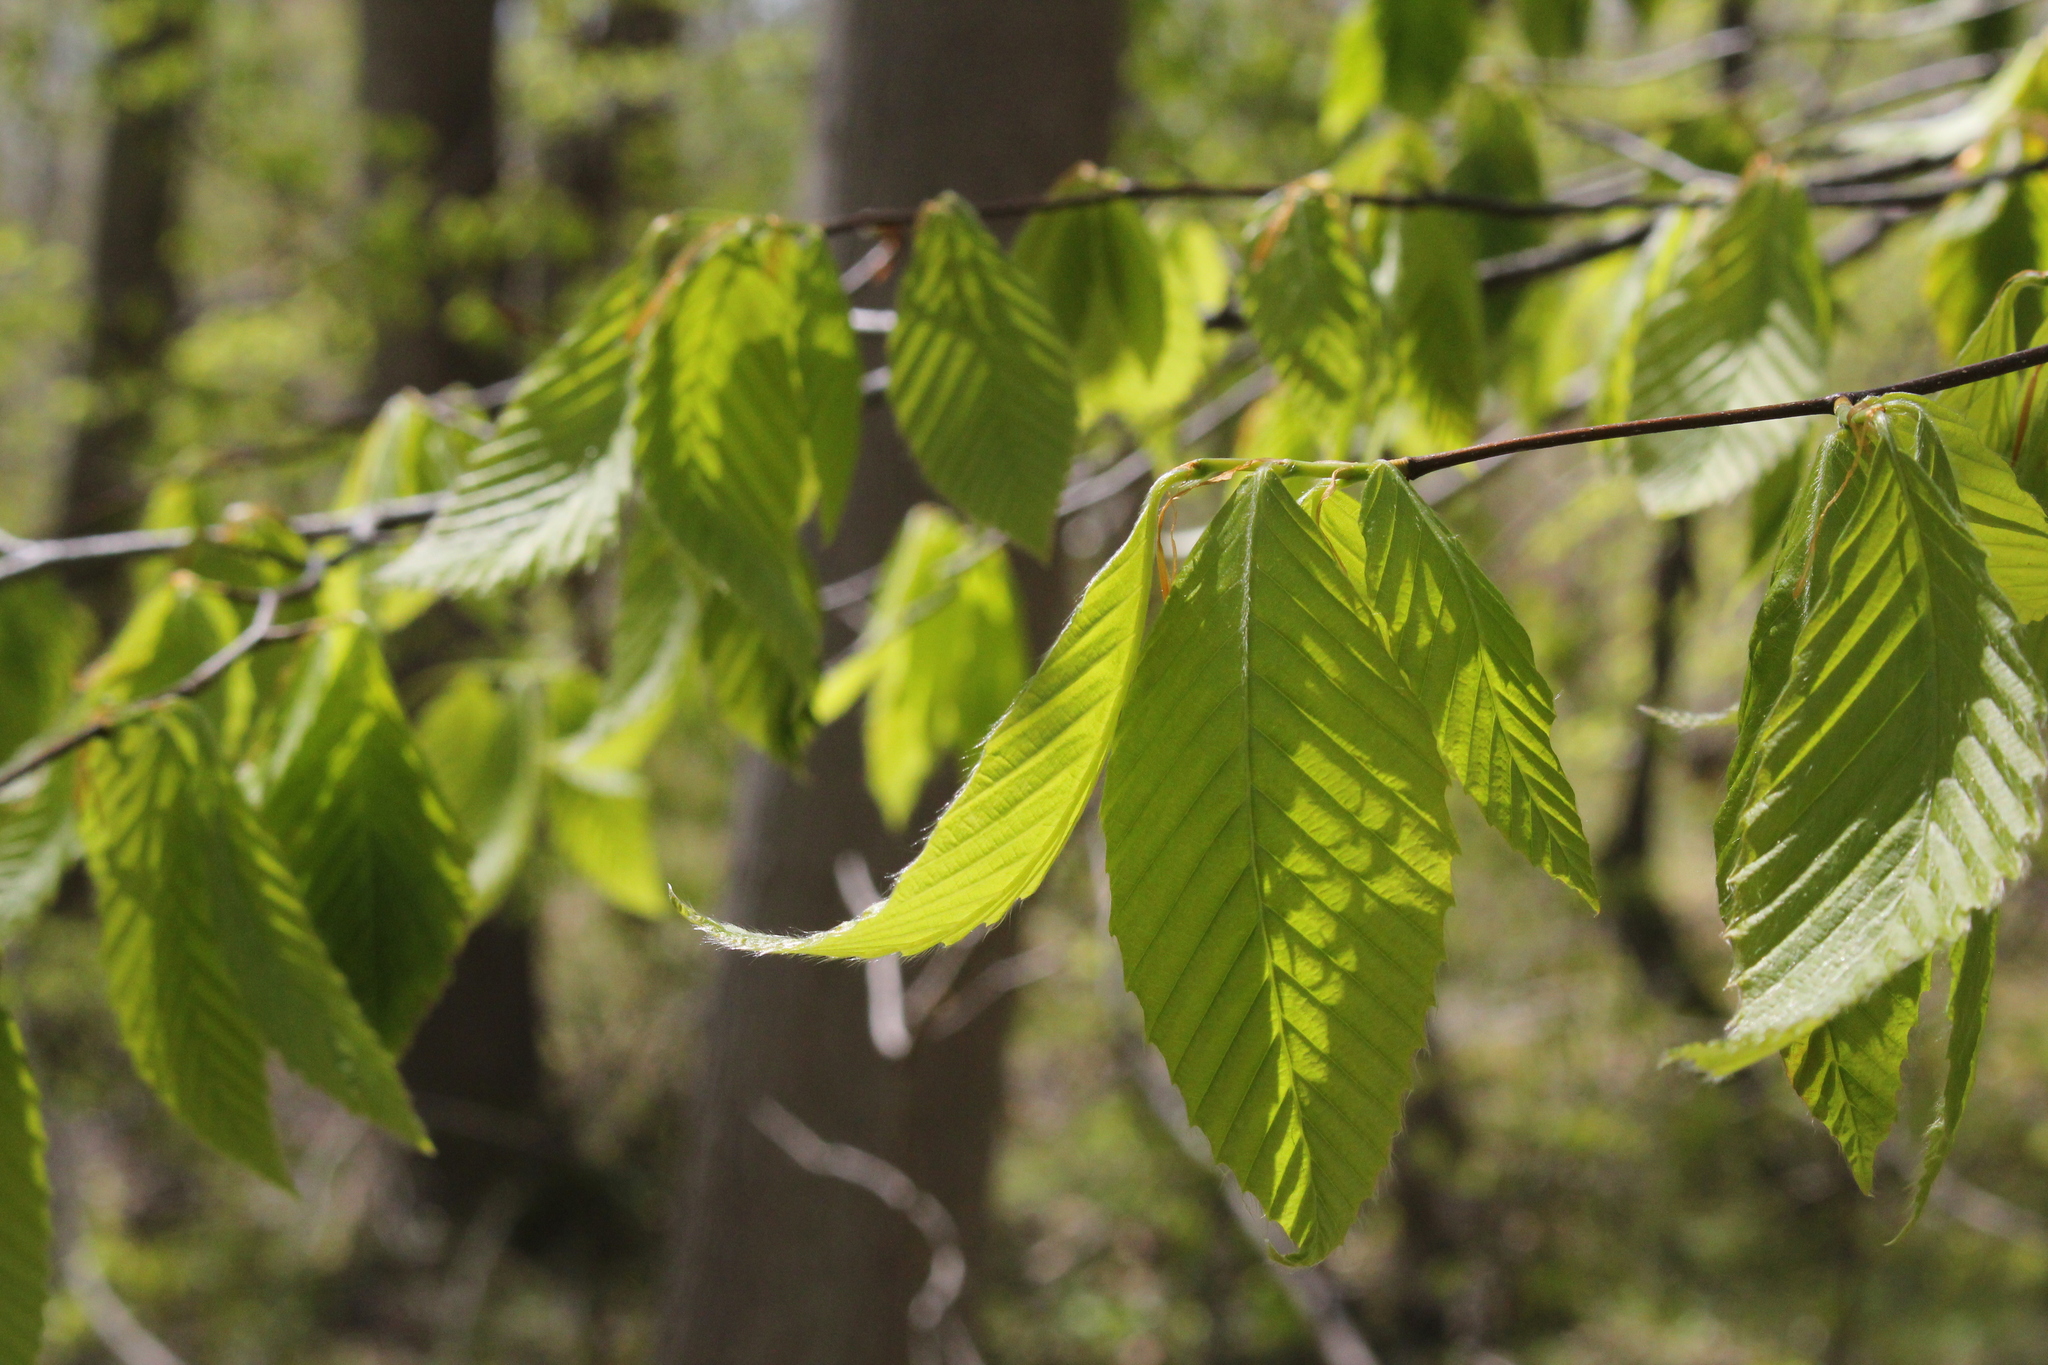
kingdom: Plantae
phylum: Tracheophyta
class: Magnoliopsida
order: Fagales
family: Fagaceae
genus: Fagus
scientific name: Fagus grandifolia
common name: American beech
